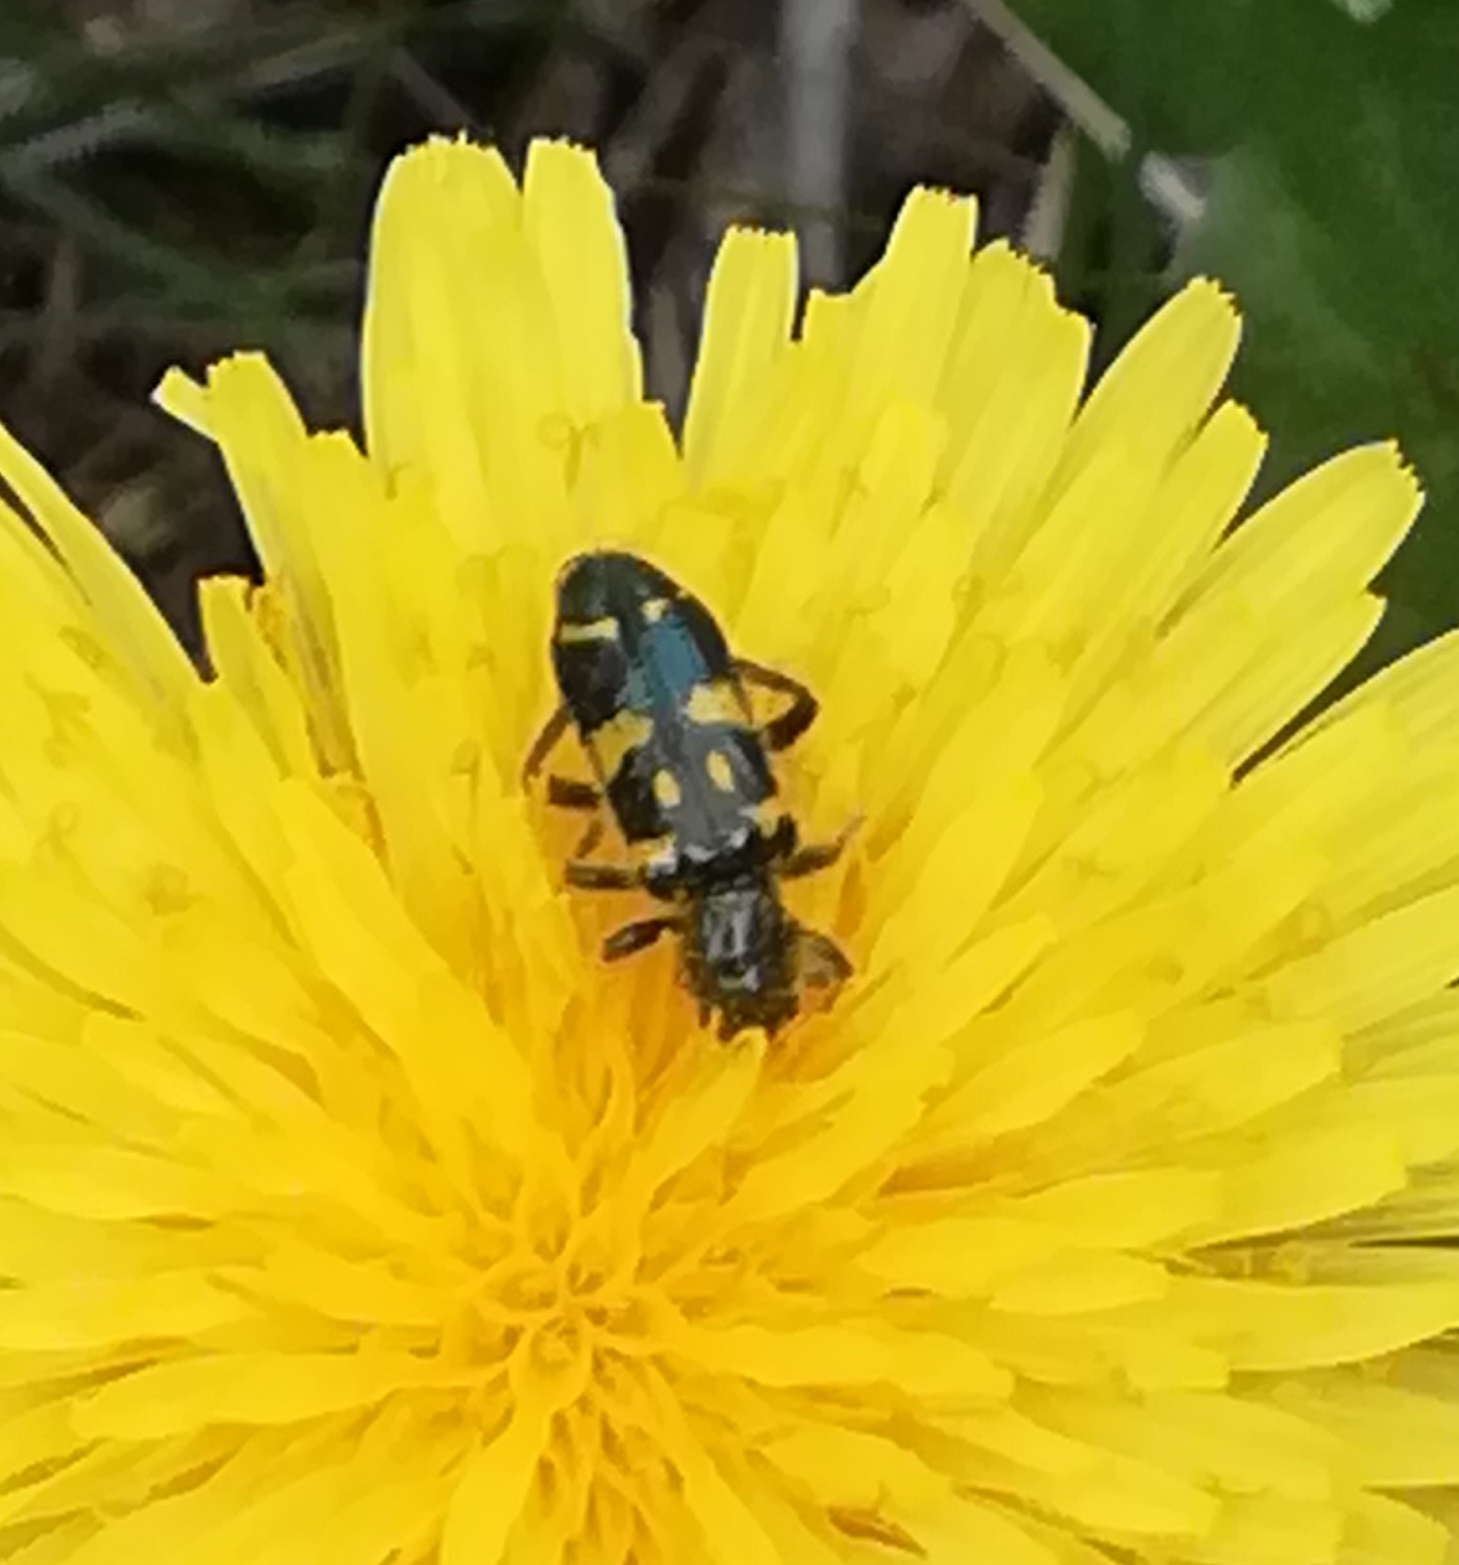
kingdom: Animalia
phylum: Arthropoda
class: Insecta
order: Coleoptera
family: Cleridae
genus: Trichodes
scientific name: Trichodes ornatus
